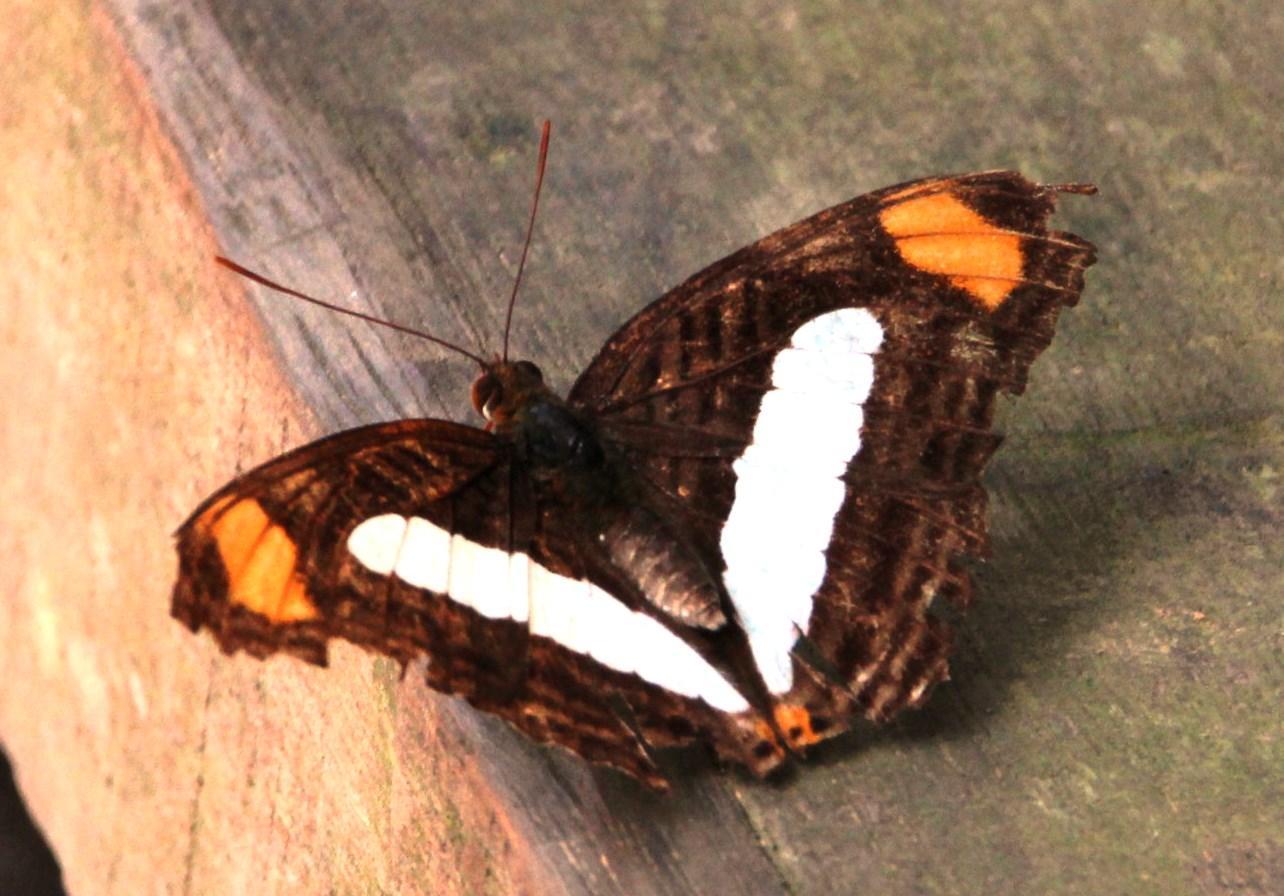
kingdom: Animalia
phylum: Arthropoda
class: Insecta
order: Lepidoptera
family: Nymphalidae
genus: Limenitis
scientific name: Limenitis Adelpha iphiclus
